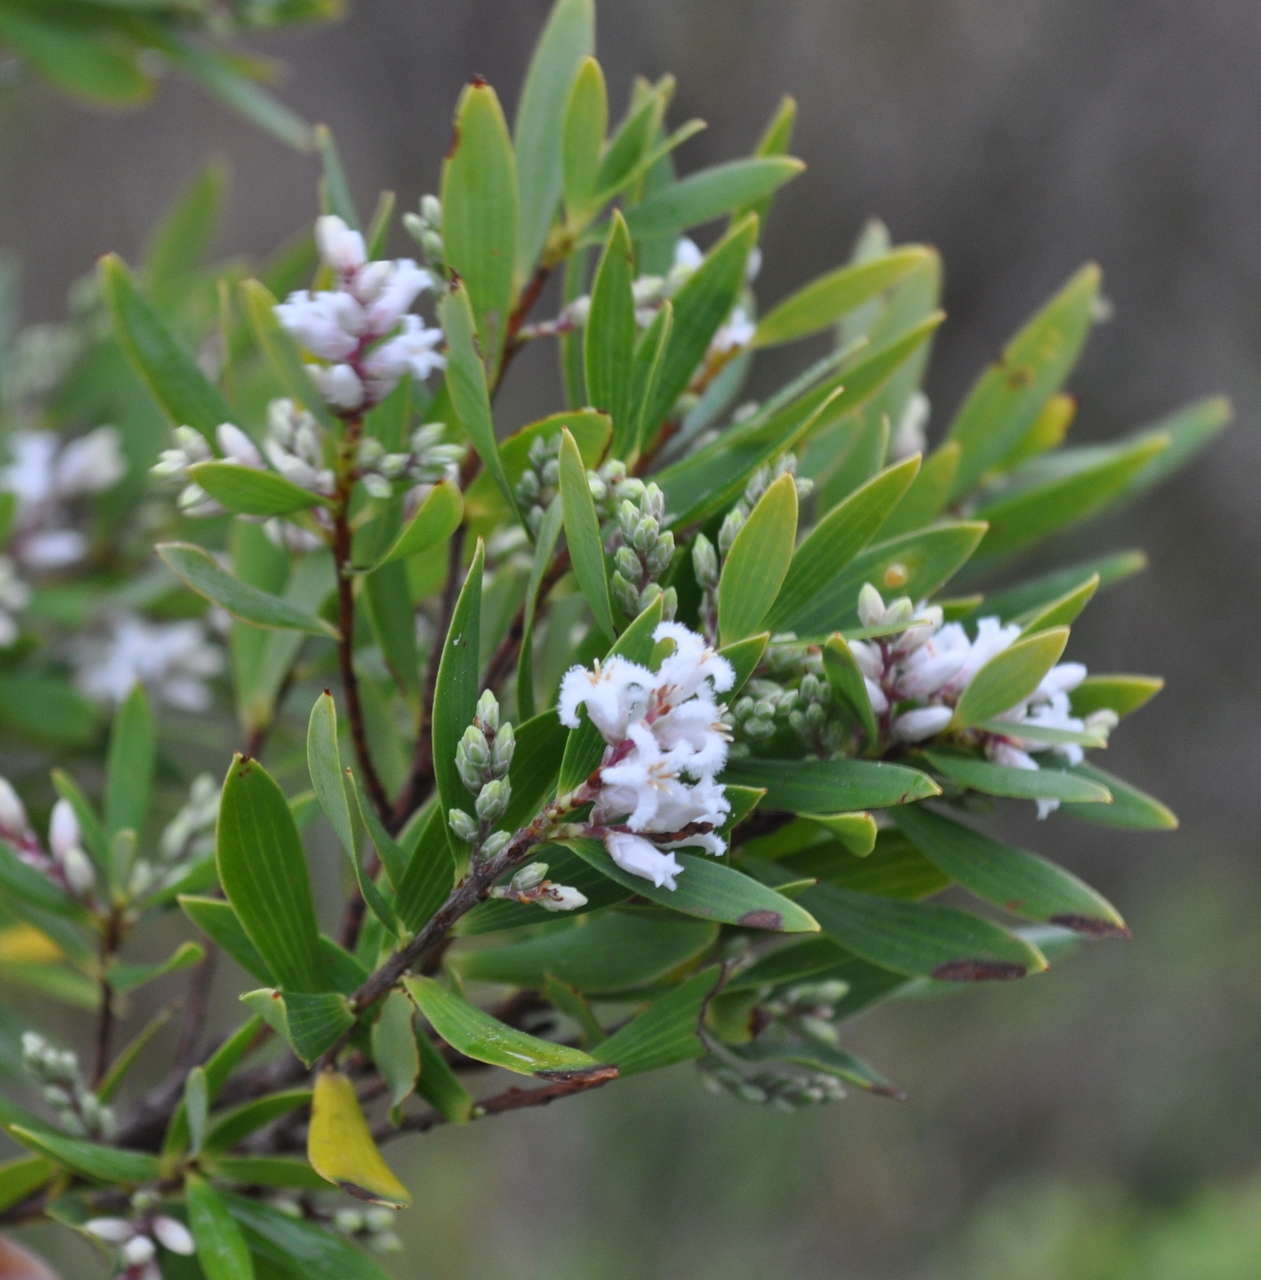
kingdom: Plantae
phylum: Tracheophyta
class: Magnoliopsida
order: Ericales
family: Ericaceae
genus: Leptecophylla
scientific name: Leptecophylla parvifolia
